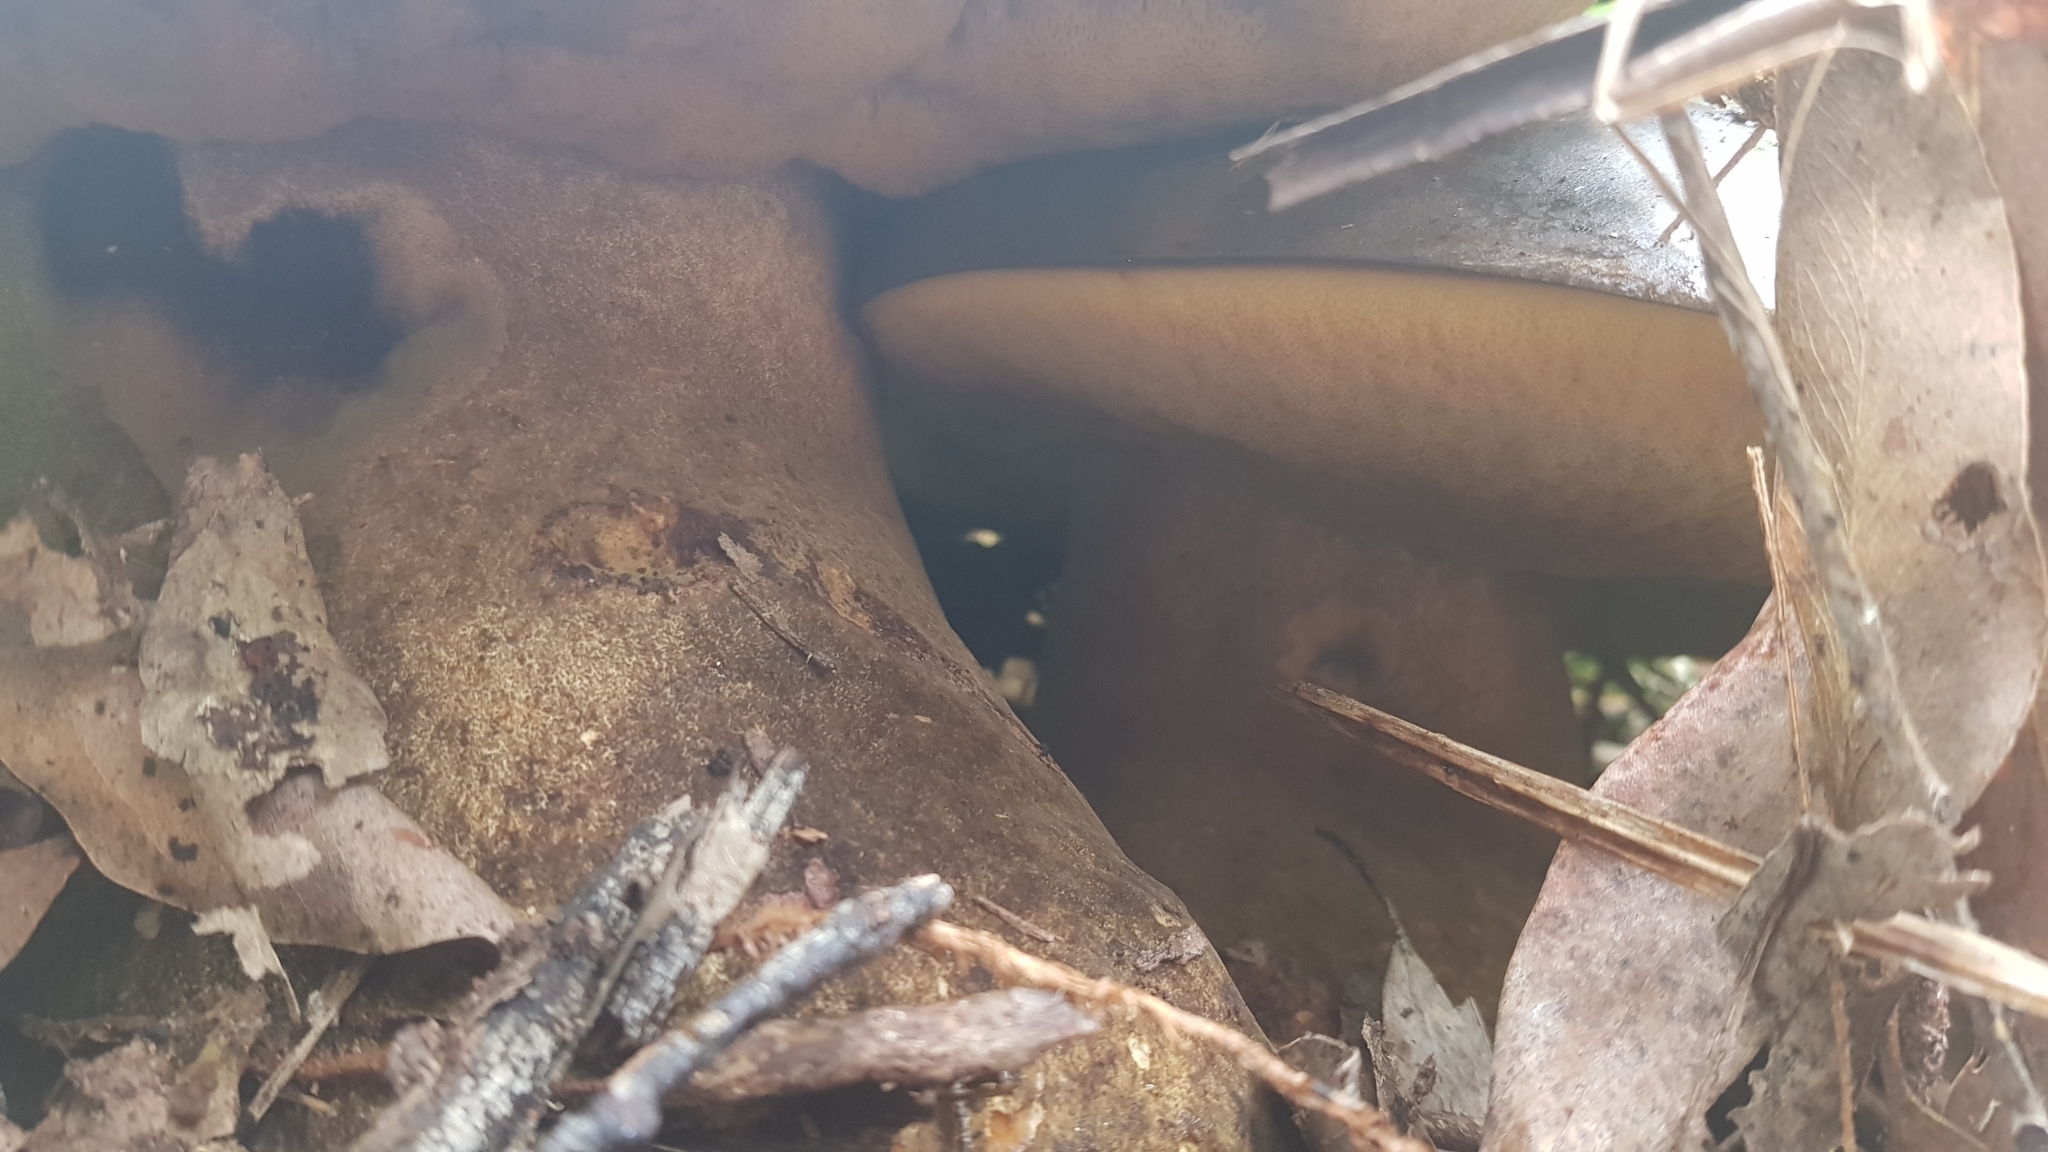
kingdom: Fungi
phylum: Basidiomycota
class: Agaricomycetes
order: Boletales
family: Boletinellaceae
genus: Phlebopus
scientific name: Phlebopus marginatus
